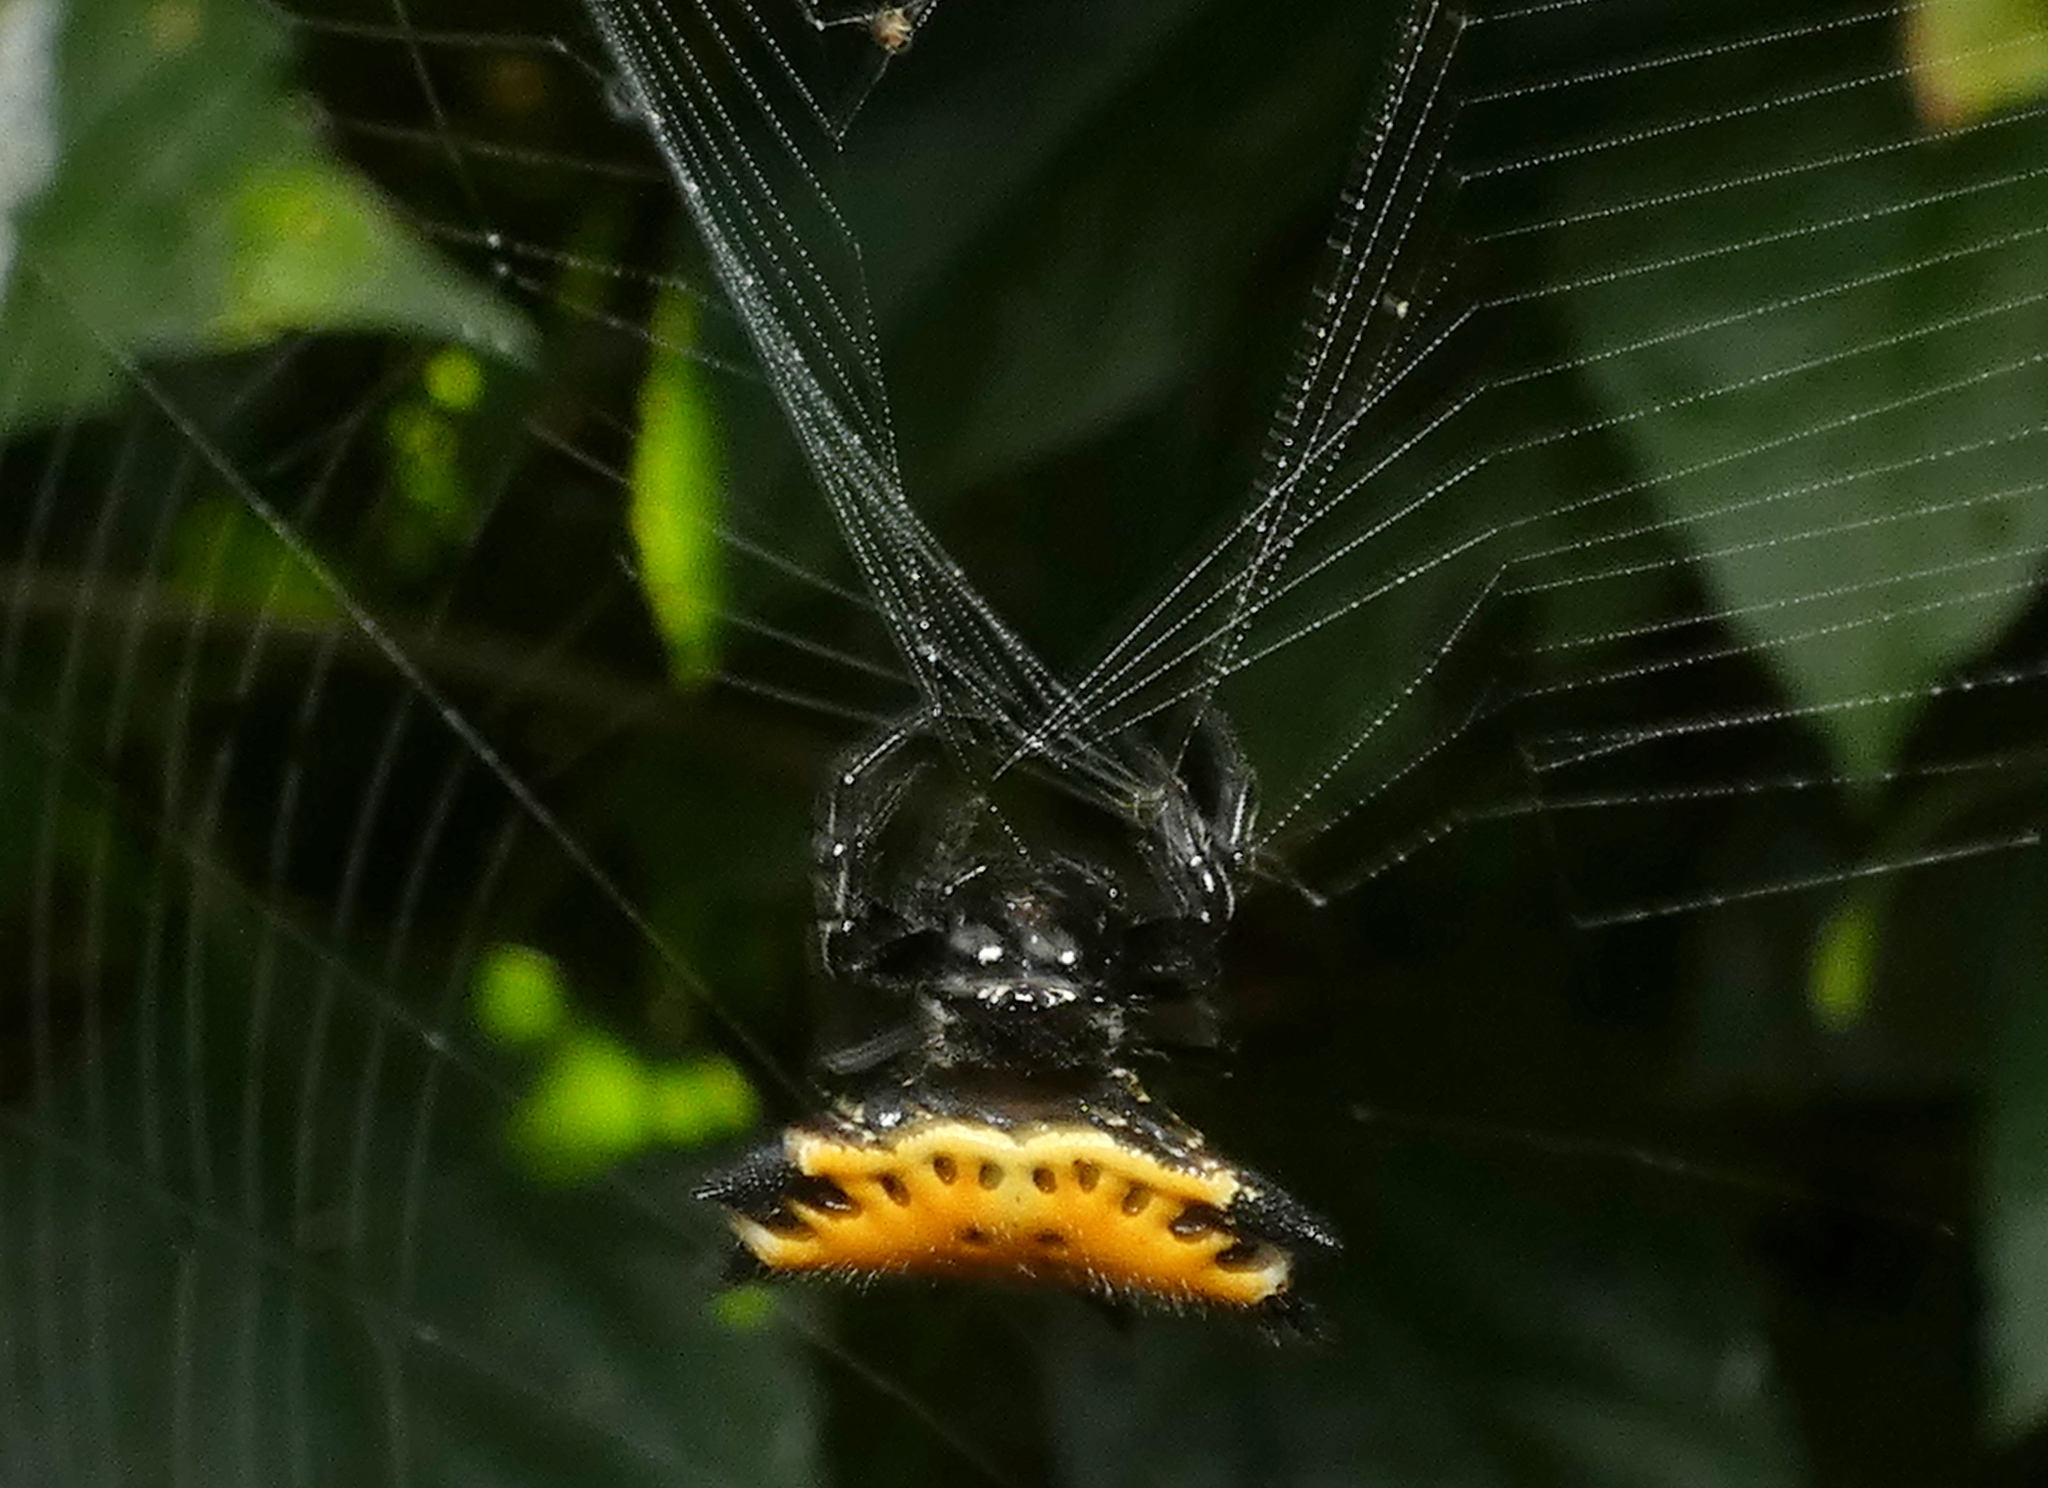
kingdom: Animalia
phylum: Arthropoda
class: Arachnida
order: Araneae
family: Araneidae
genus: Gasteracantha
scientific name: Gasteracantha cancriformis
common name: Orb weavers
